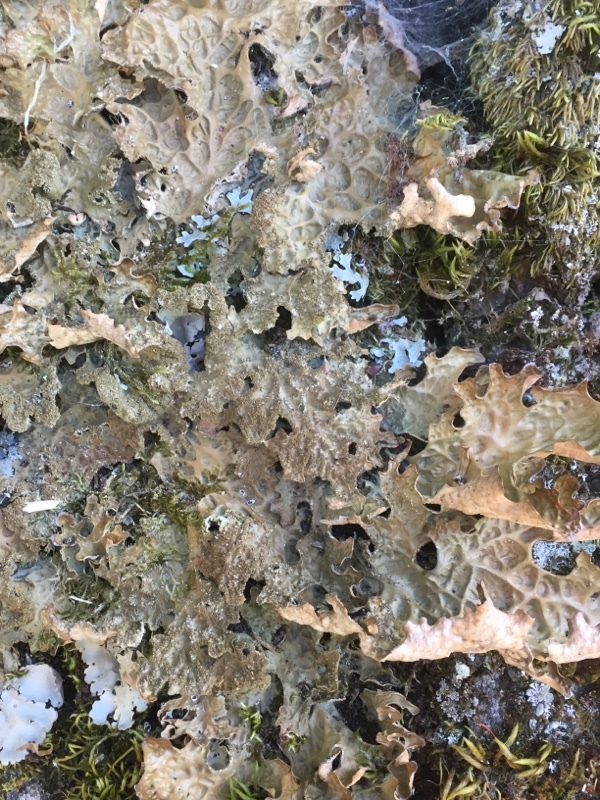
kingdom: Fungi
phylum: Ascomycota
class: Lecanoromycetes
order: Peltigerales
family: Lobariaceae
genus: Lobaria
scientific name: Lobaria pulmonaria
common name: Lungwort
